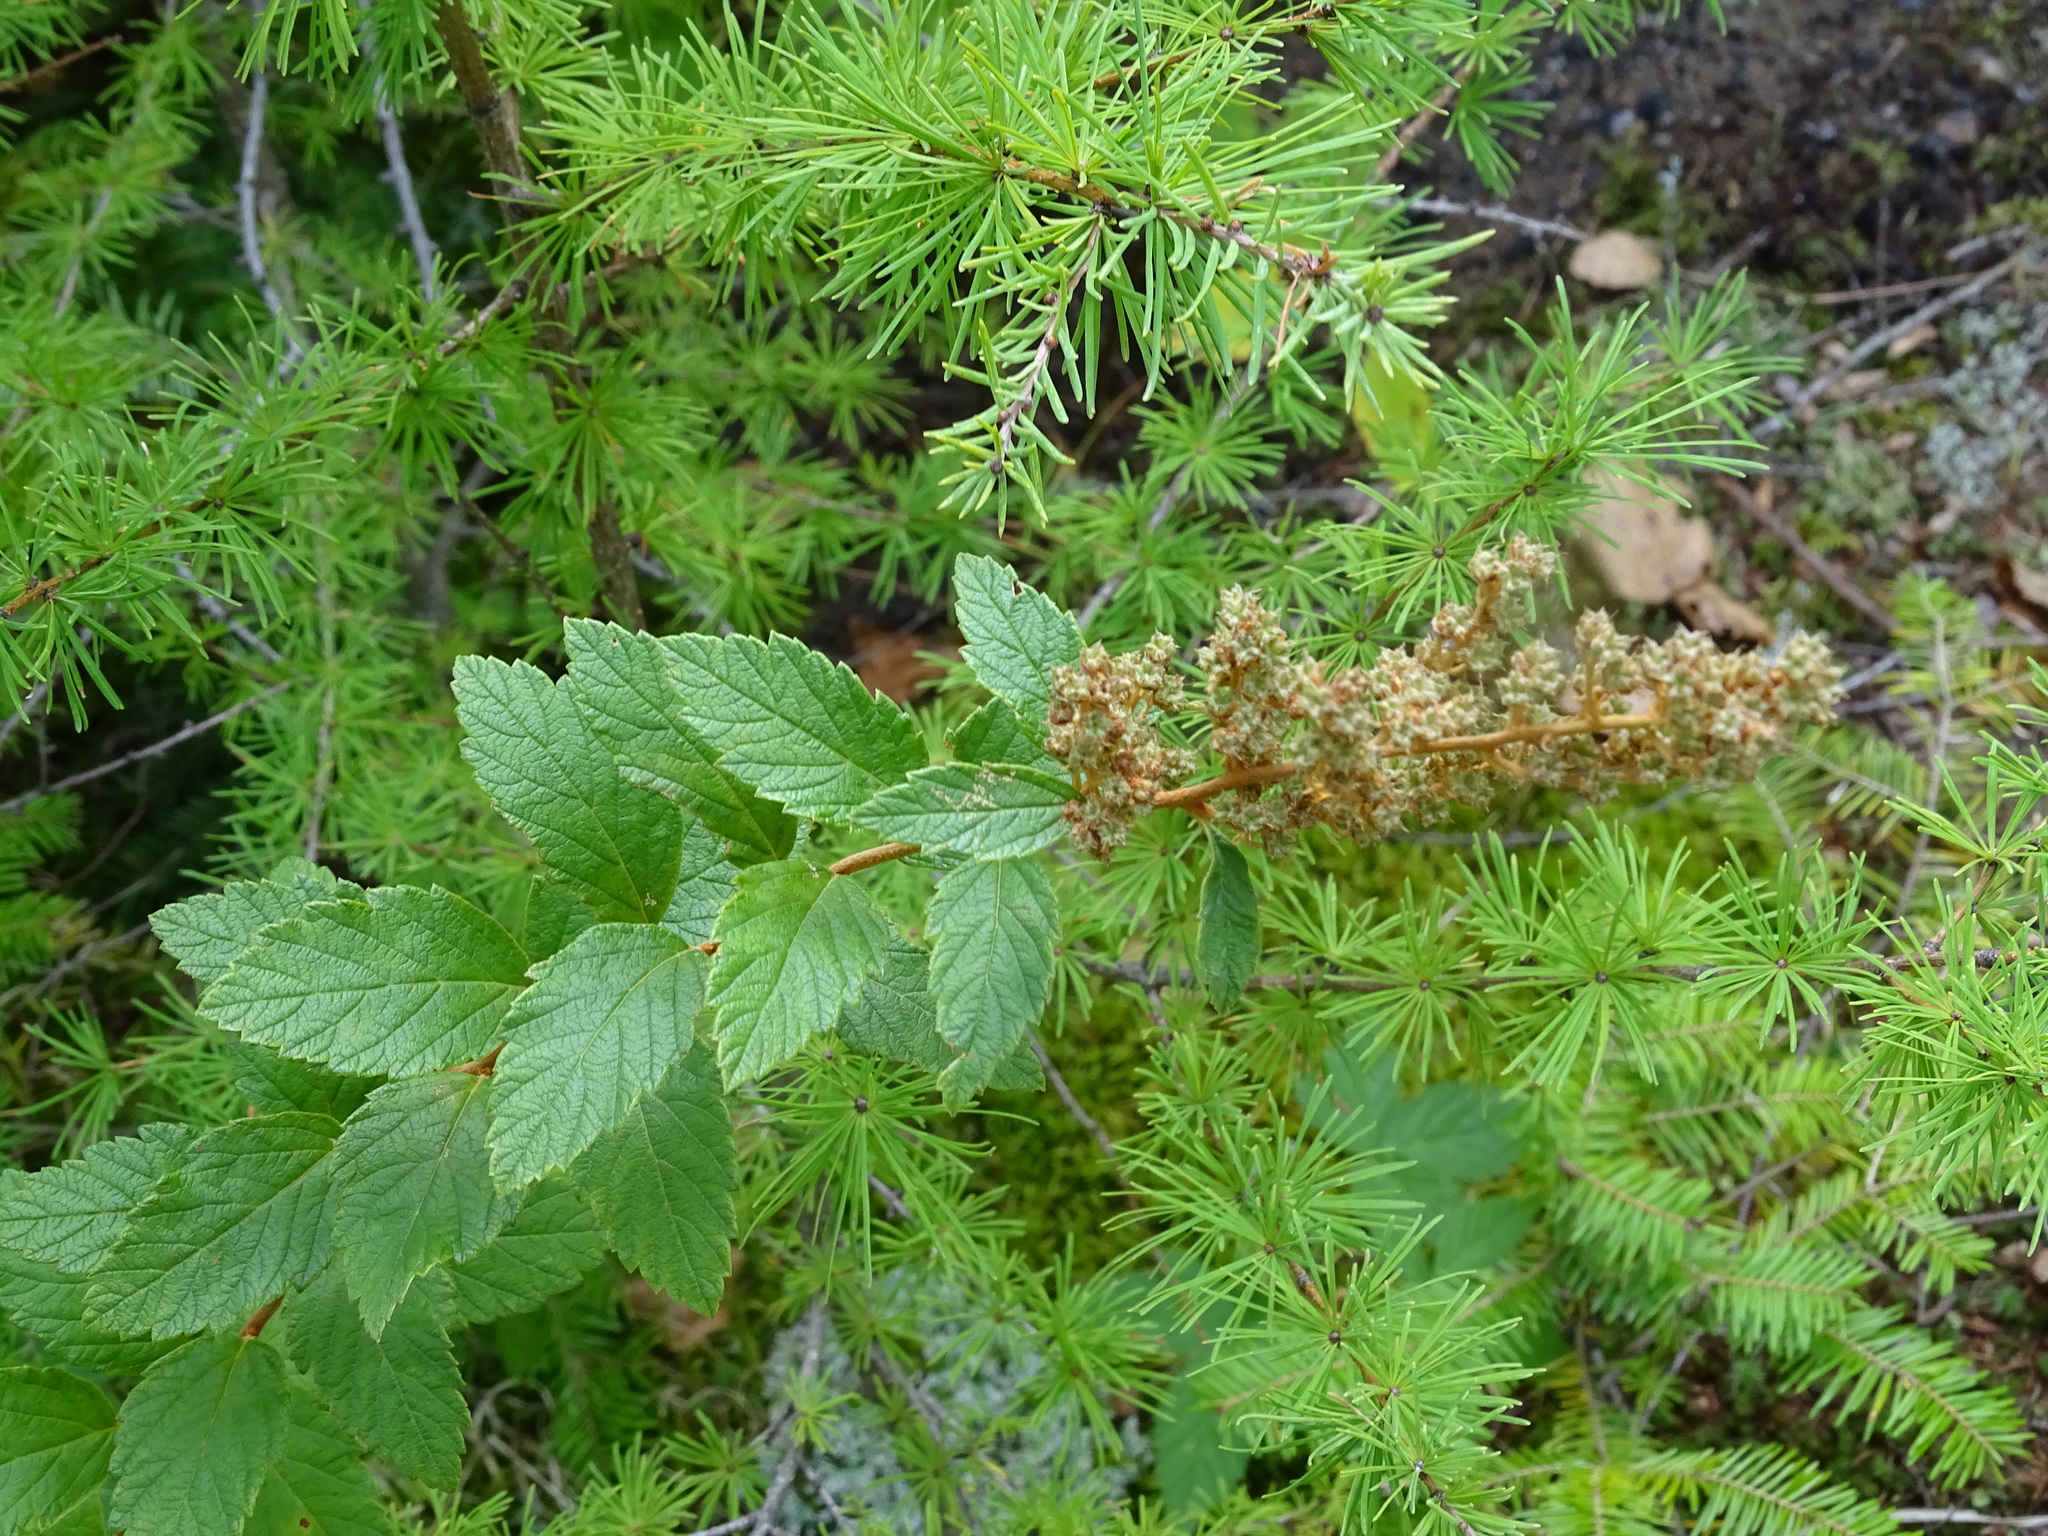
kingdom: Plantae
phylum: Tracheophyta
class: Magnoliopsida
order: Rosales
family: Rosaceae
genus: Spiraea
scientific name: Spiraea tomentosa
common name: Hardhack
